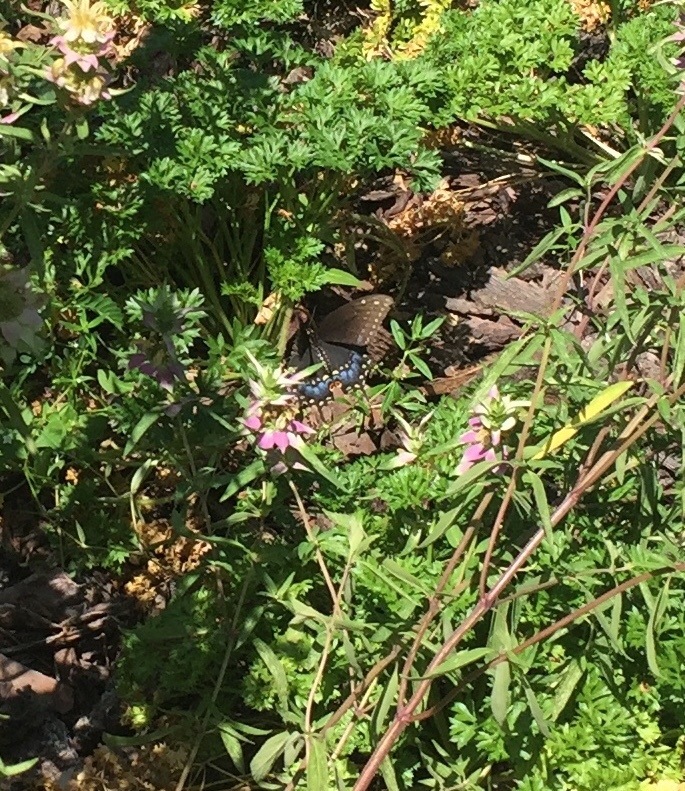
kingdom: Animalia
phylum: Arthropoda
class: Insecta
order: Lepidoptera
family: Papilionidae
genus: Papilio
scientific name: Papilio polyxenes
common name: Black swallowtail
